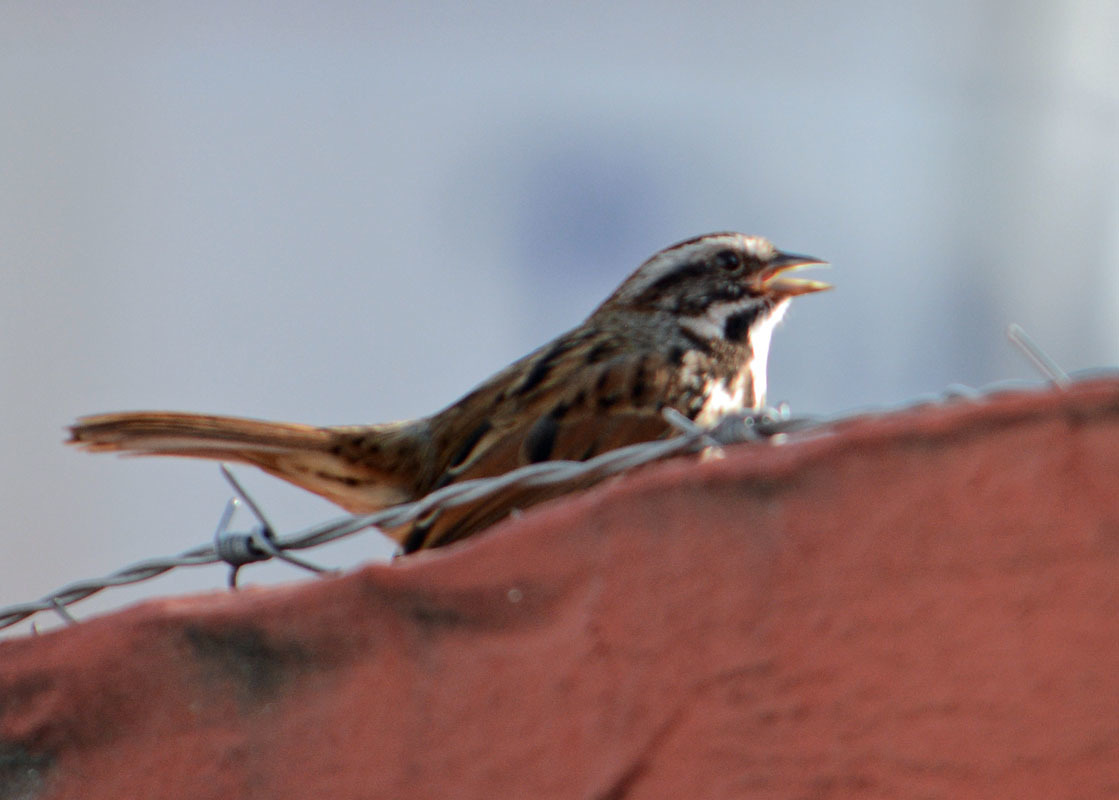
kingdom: Animalia
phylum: Chordata
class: Aves
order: Passeriformes
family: Passerellidae
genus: Melospiza
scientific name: Melospiza melodia
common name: Song sparrow
